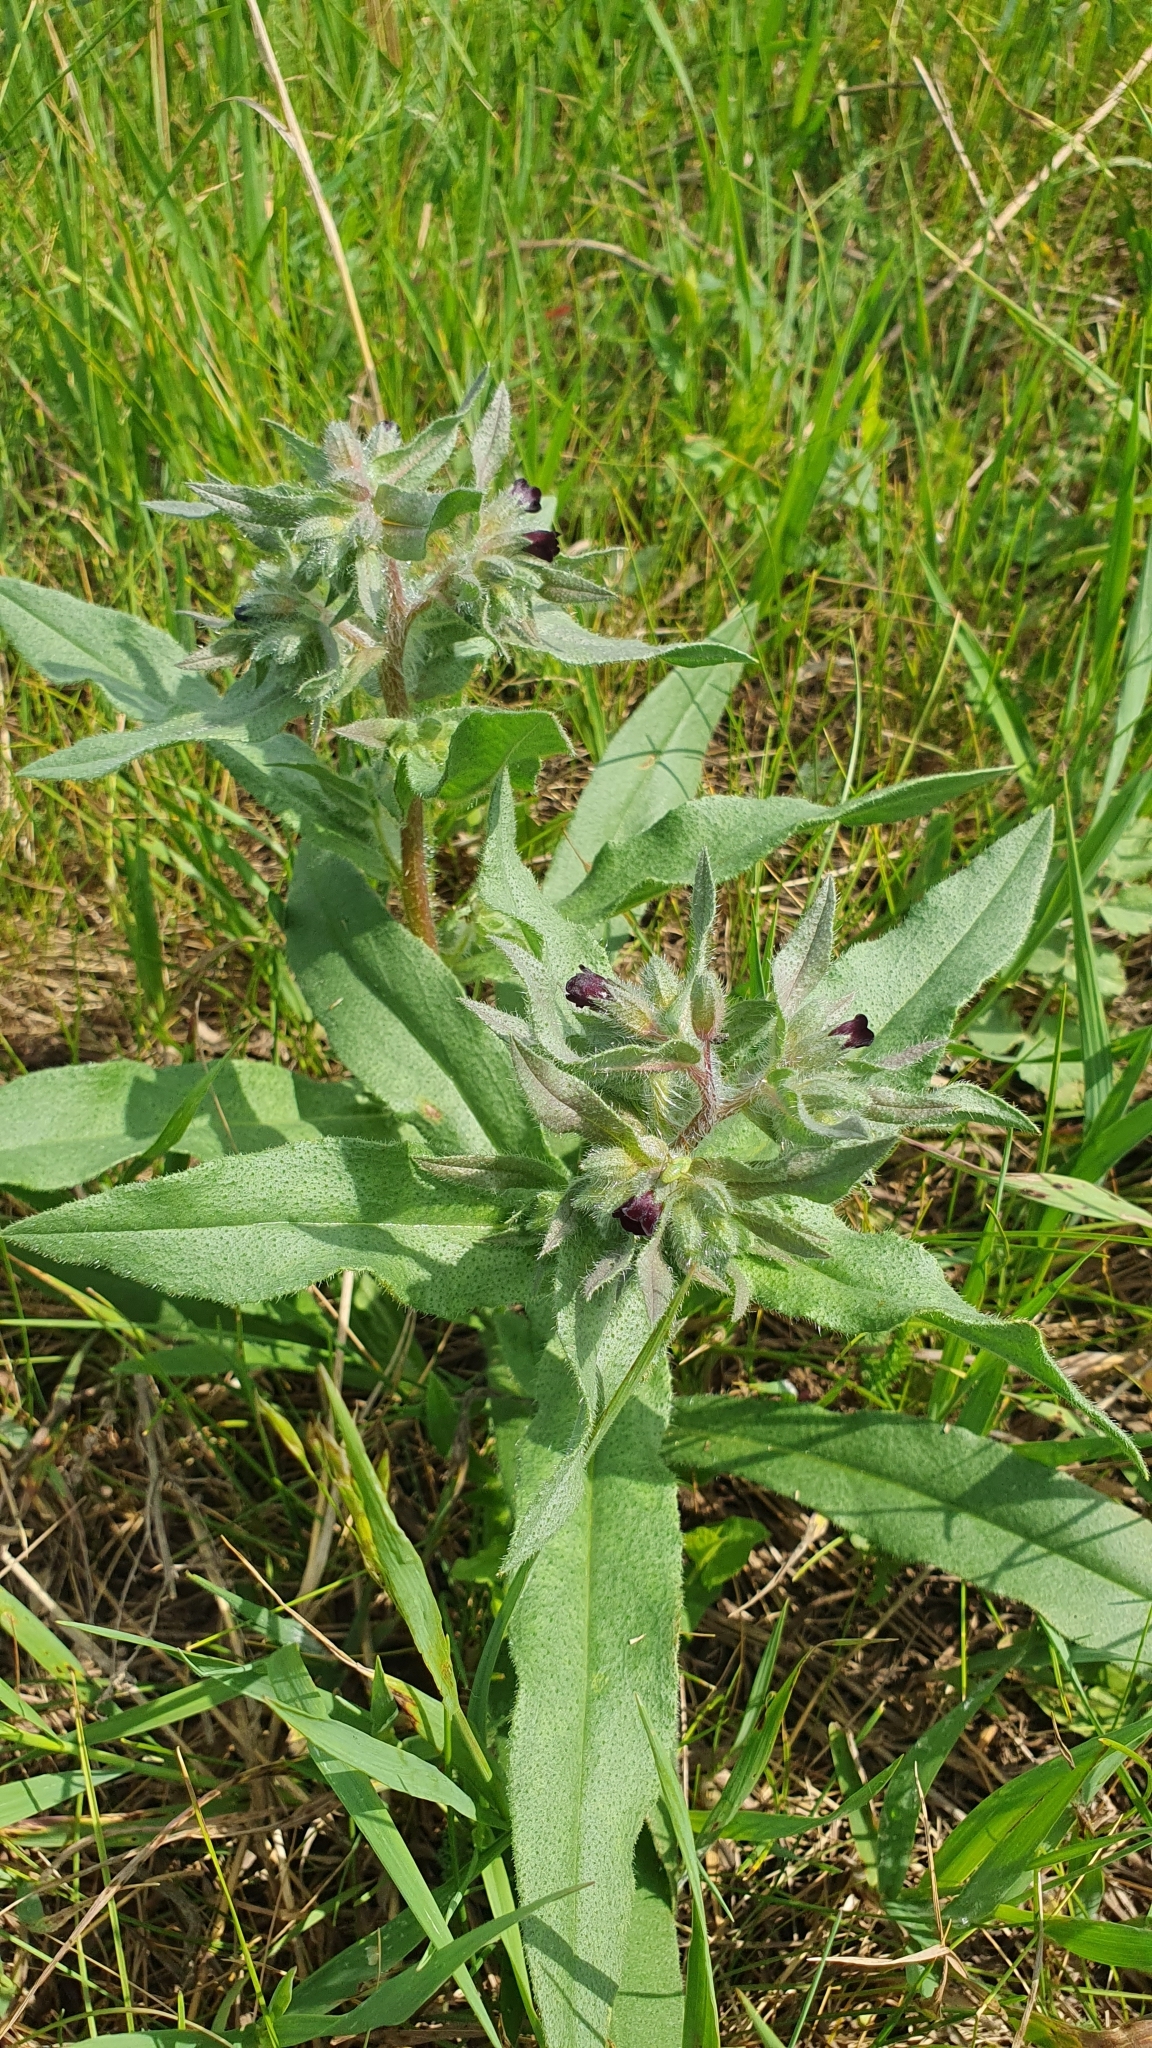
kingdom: Plantae
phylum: Tracheophyta
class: Magnoliopsida
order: Boraginales
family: Boraginaceae
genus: Nonea
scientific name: Nonea pulla
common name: Brown nonea
